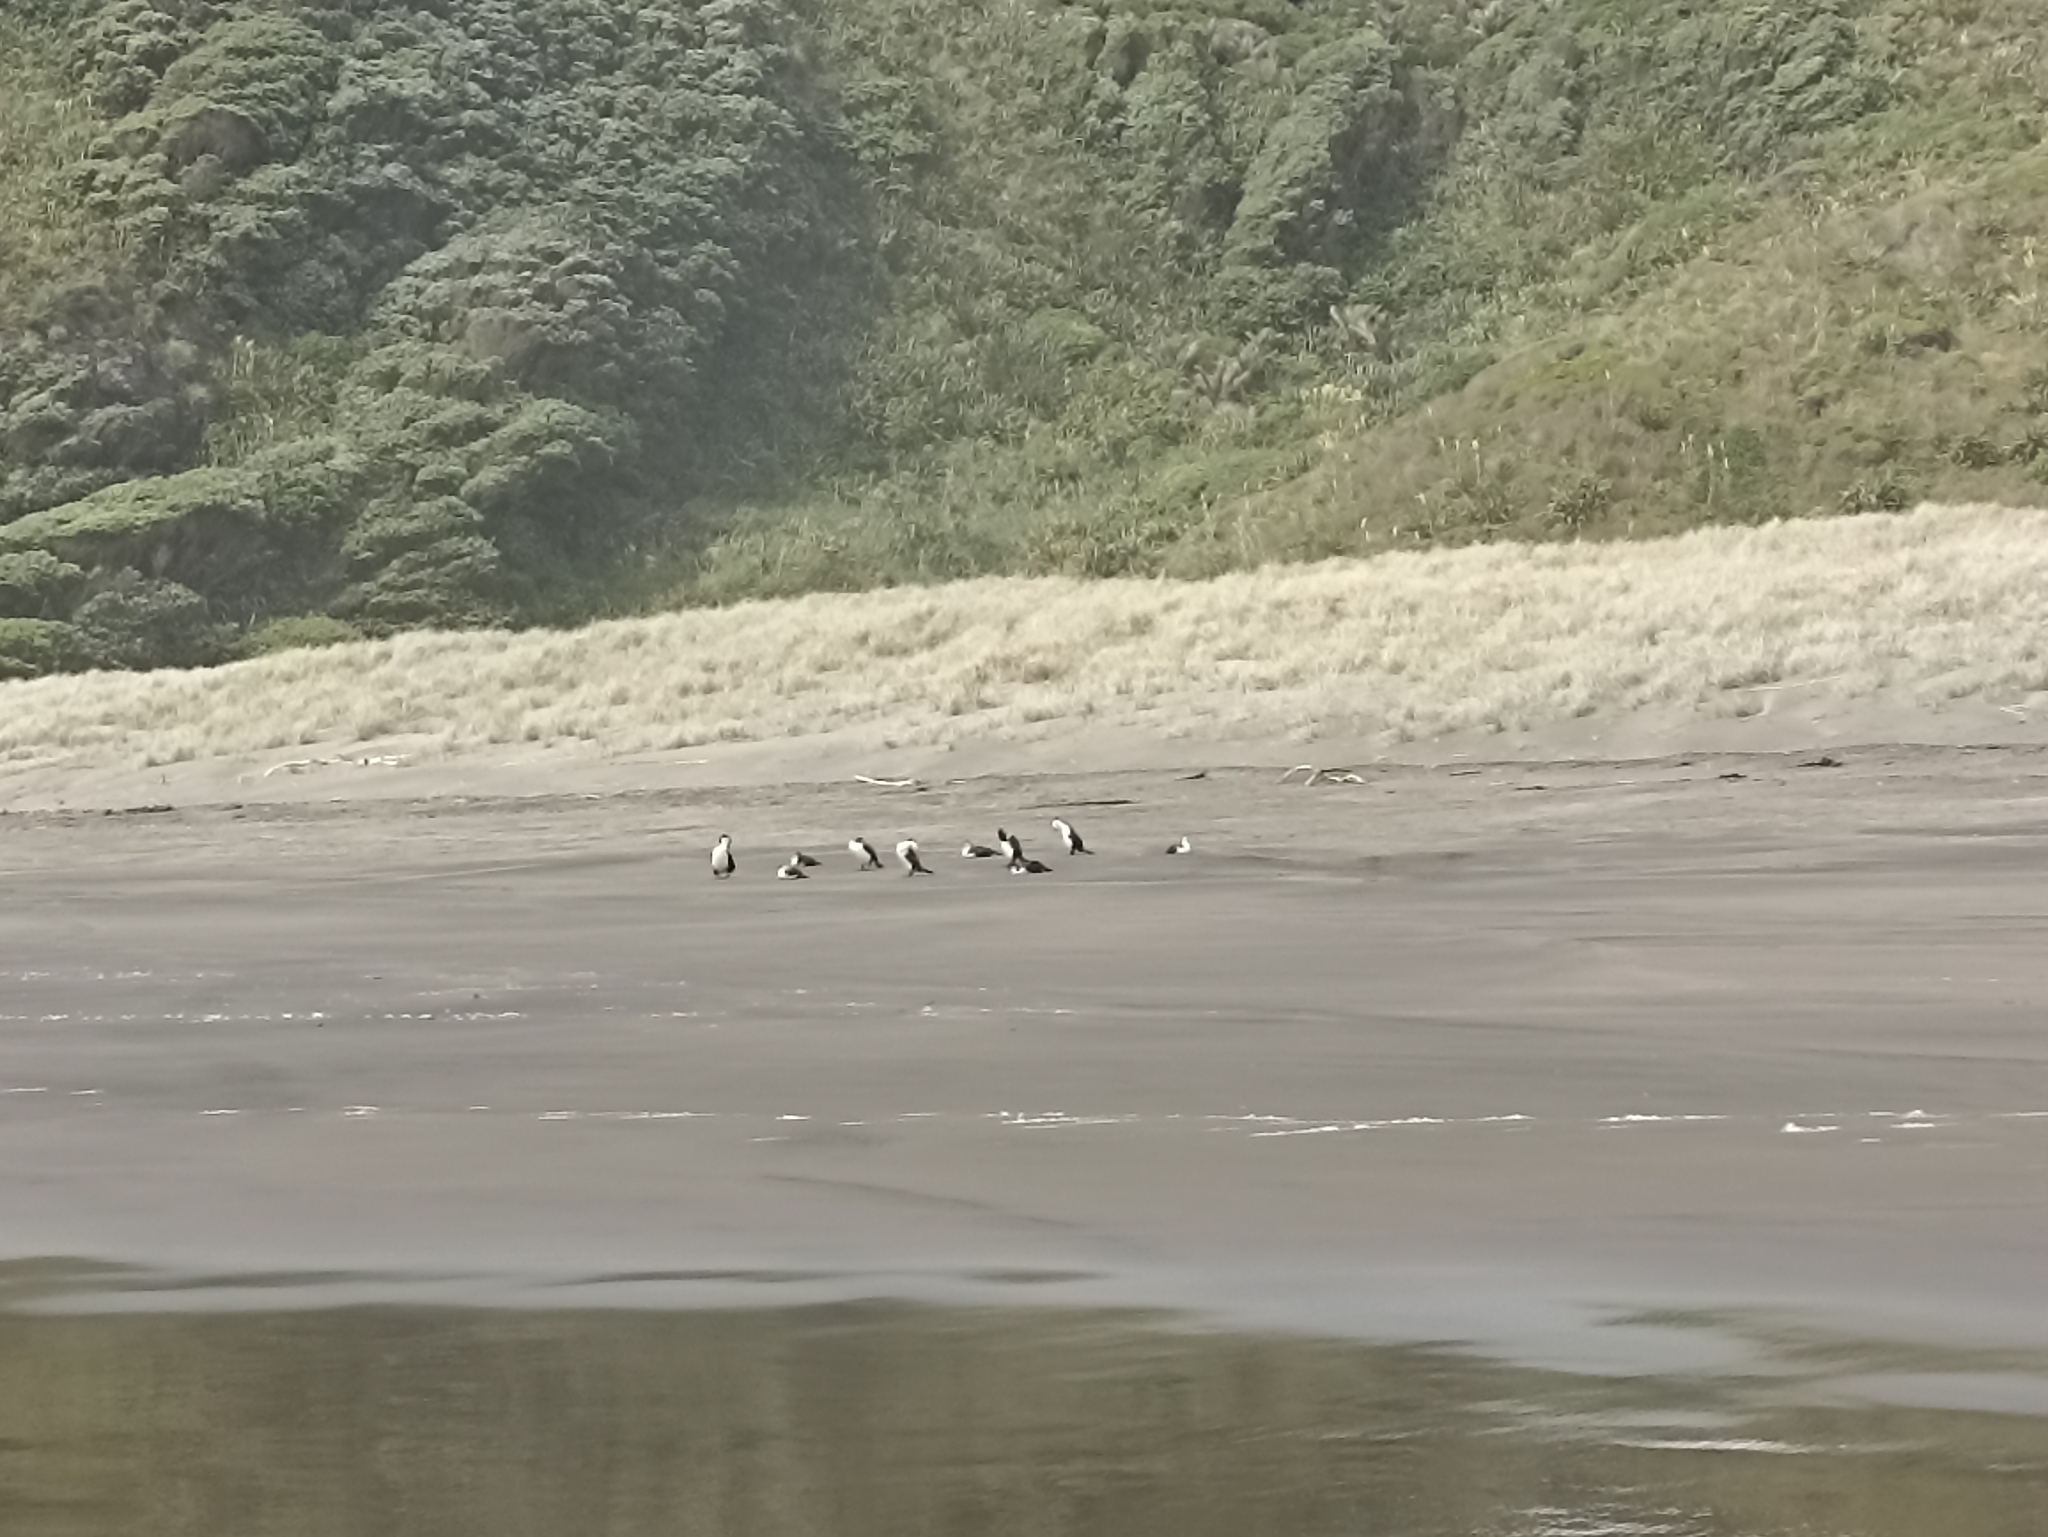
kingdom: Animalia
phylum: Chordata
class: Aves
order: Suliformes
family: Phalacrocoracidae
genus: Phalacrocorax
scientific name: Phalacrocorax varius
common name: Pied cormorant
